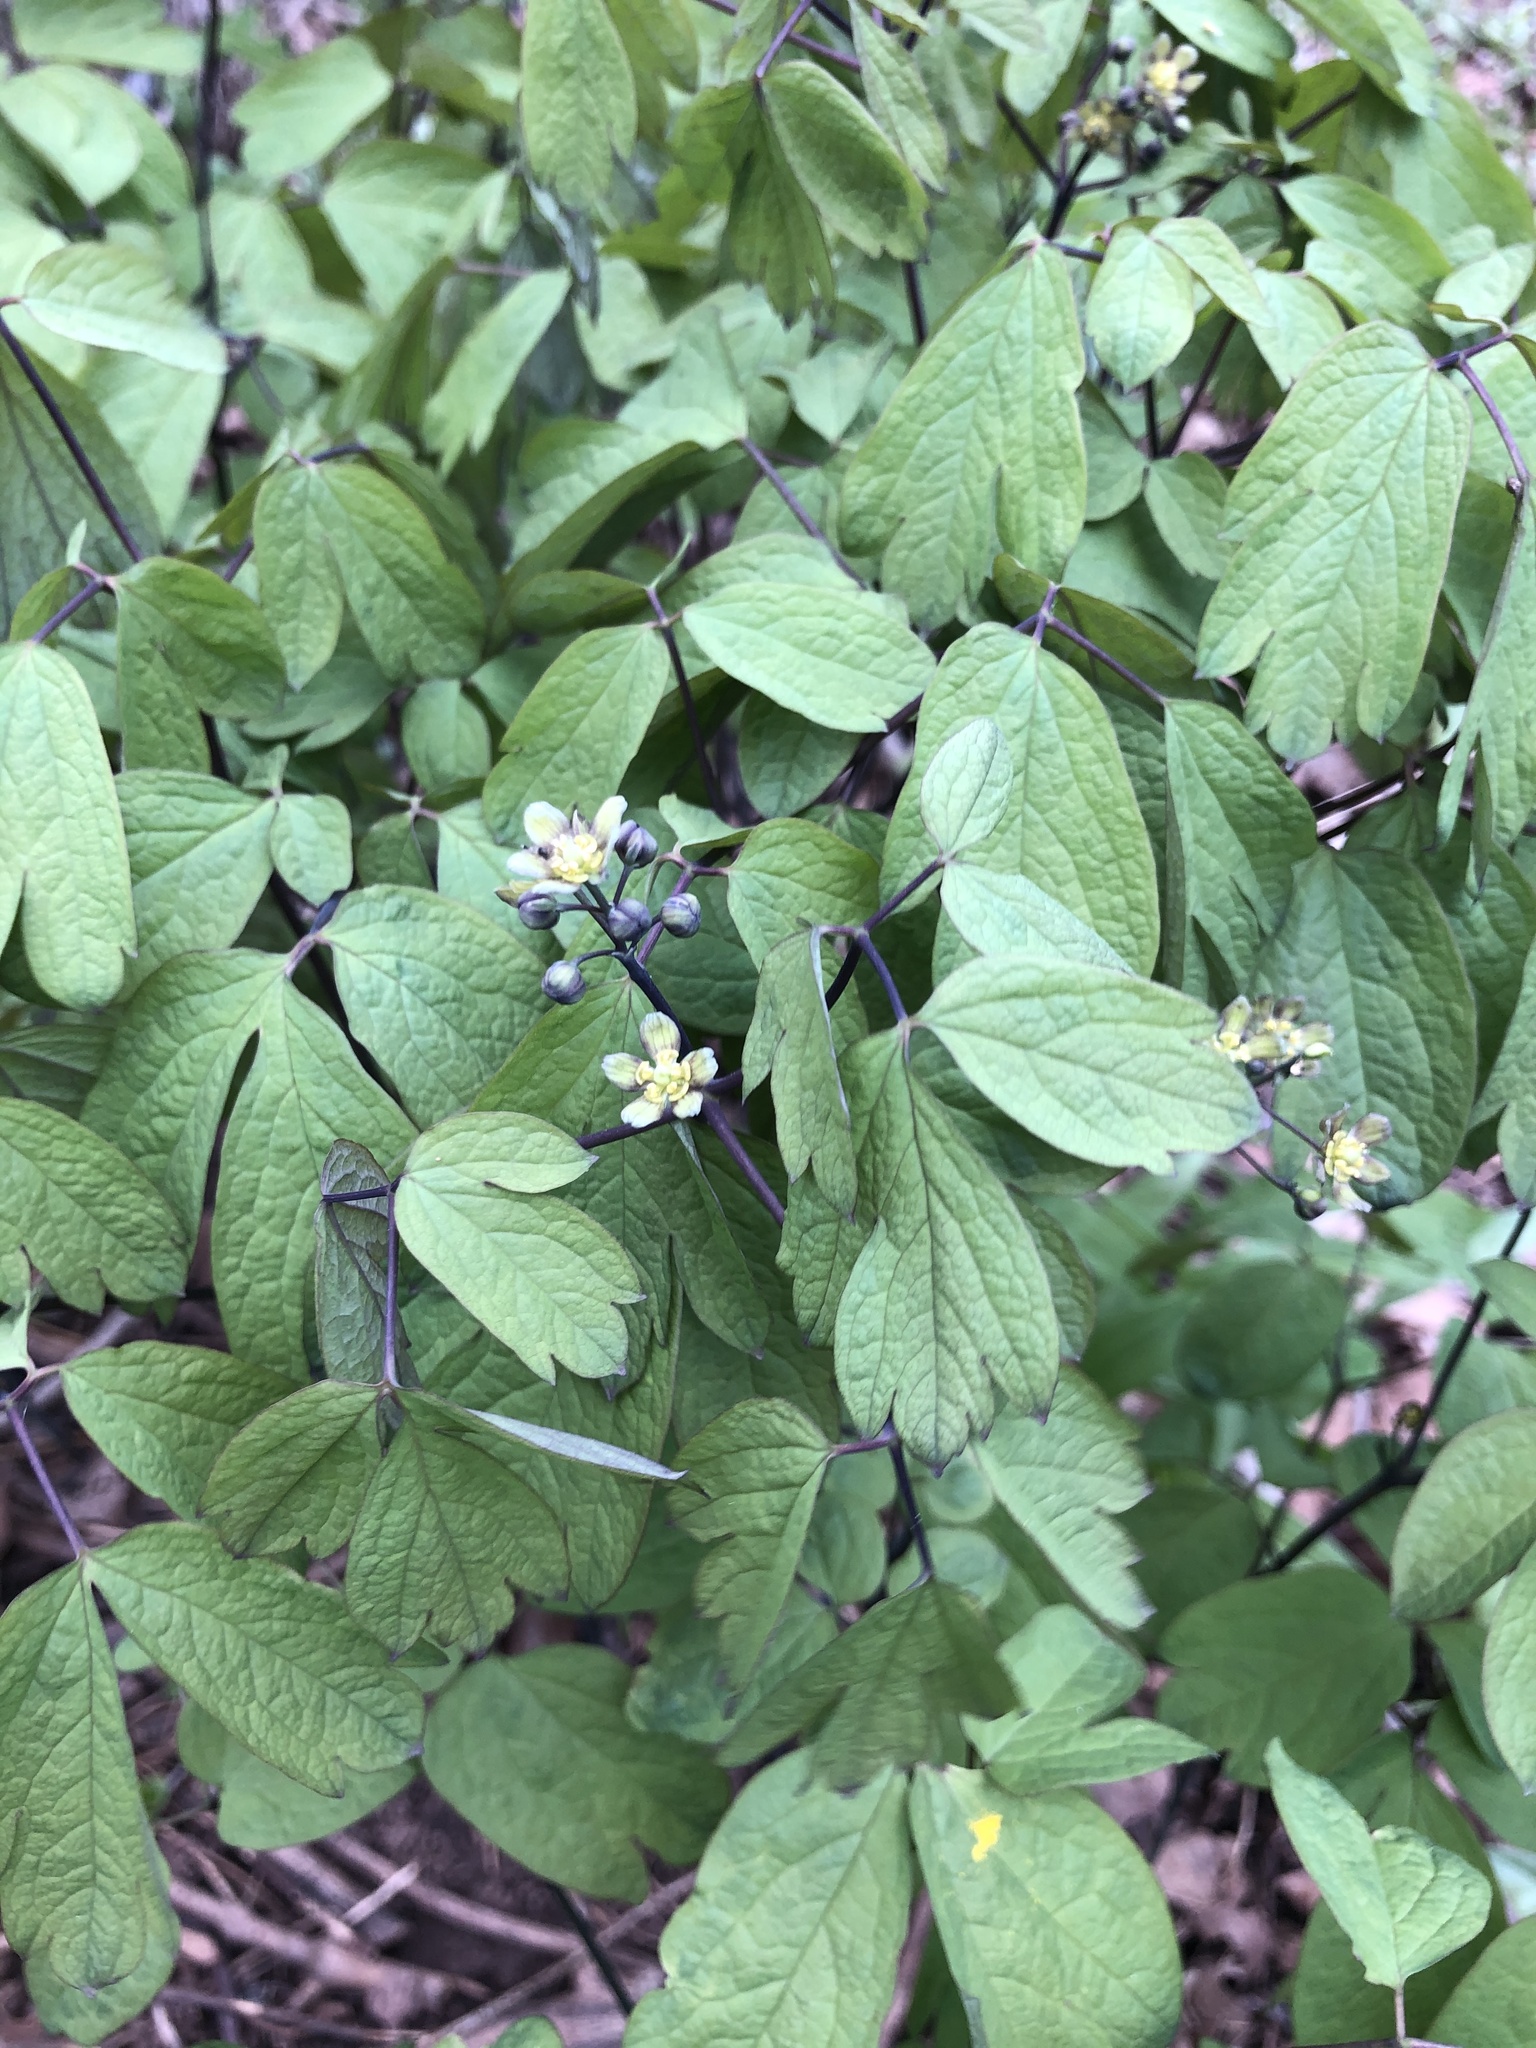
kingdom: Plantae
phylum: Tracheophyta
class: Magnoliopsida
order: Ranunculales
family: Berberidaceae
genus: Caulophyllum
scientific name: Caulophyllum thalictroides
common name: Blue cohosh
